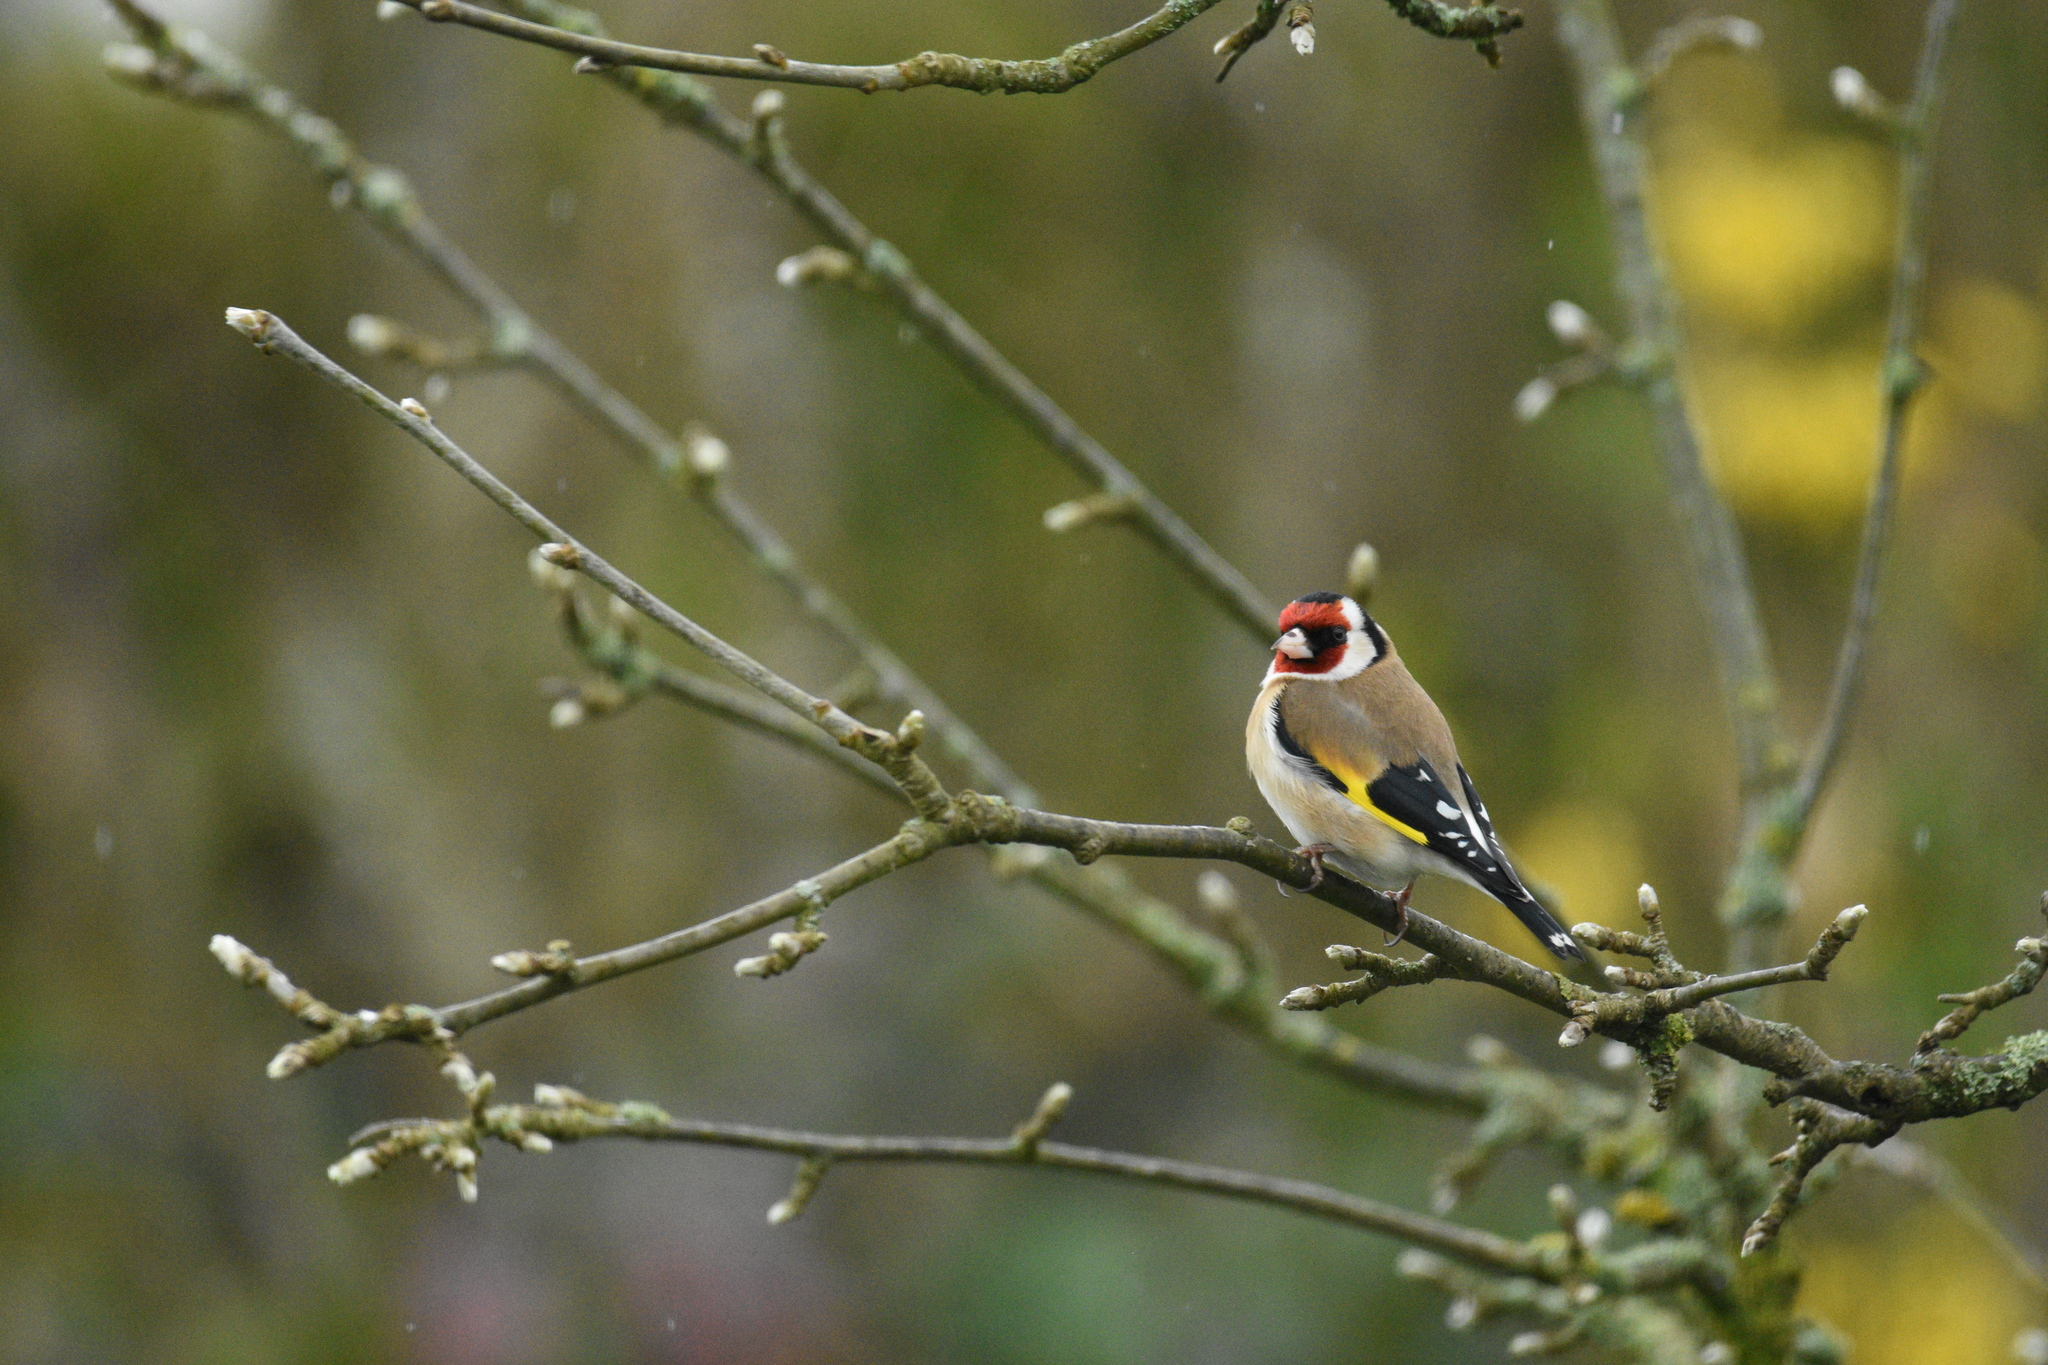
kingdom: Animalia
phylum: Chordata
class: Aves
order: Passeriformes
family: Fringillidae
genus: Carduelis
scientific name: Carduelis carduelis
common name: European goldfinch
